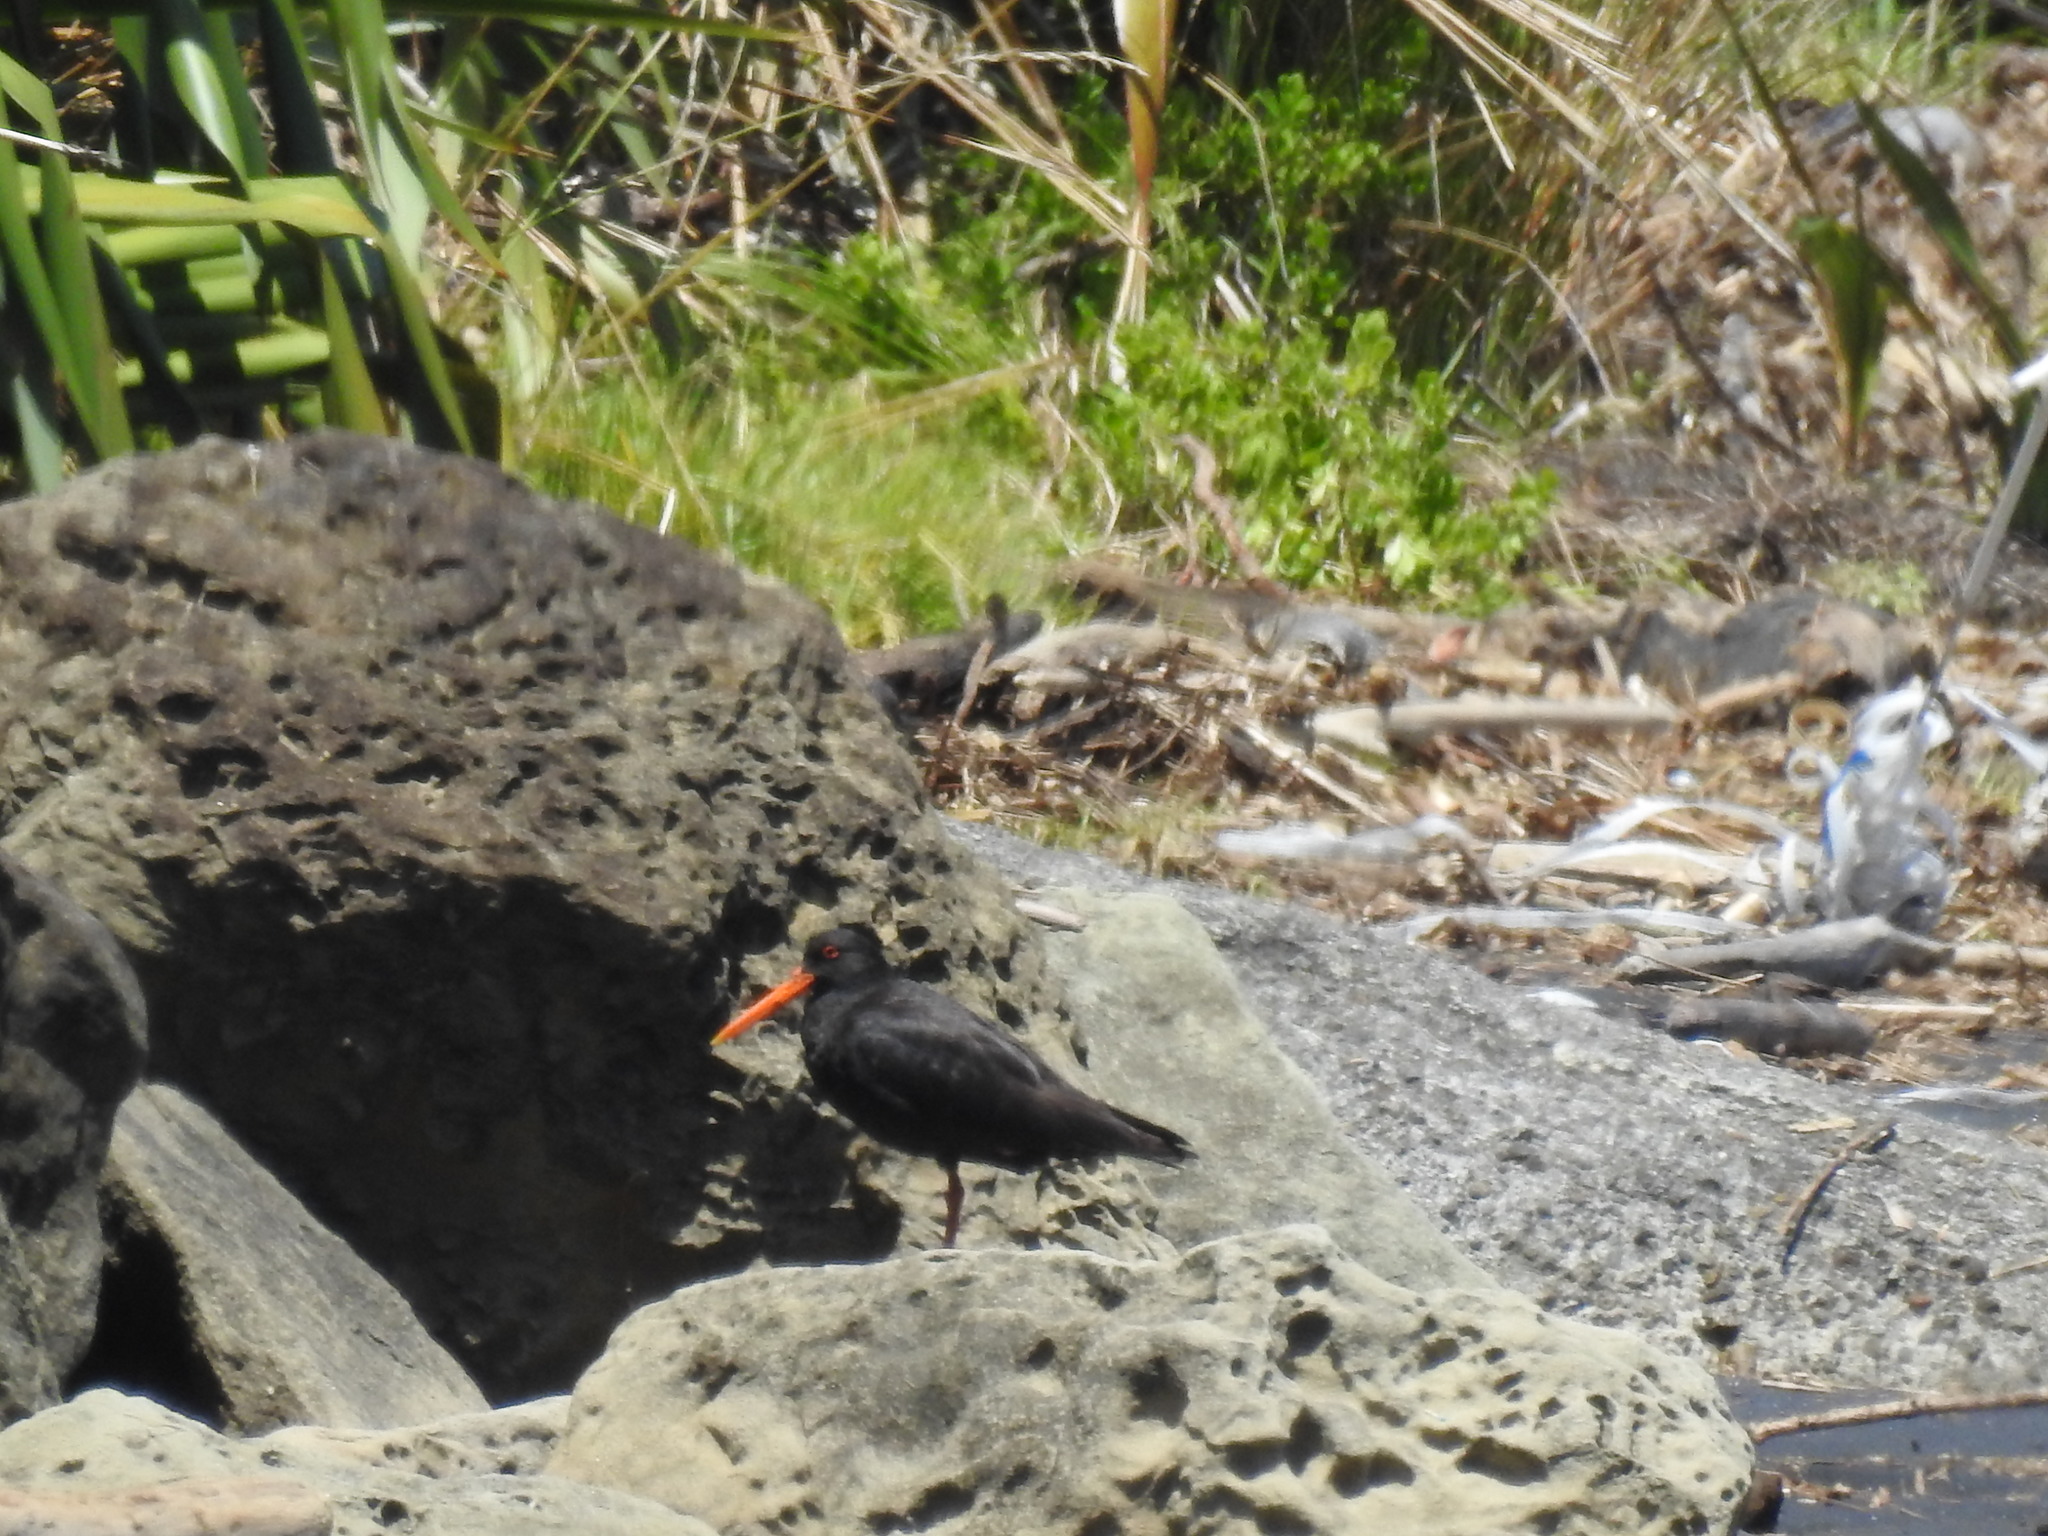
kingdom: Animalia
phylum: Chordata
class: Aves
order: Charadriiformes
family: Haematopodidae
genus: Haematopus
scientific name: Haematopus unicolor
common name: Variable oystercatcher
